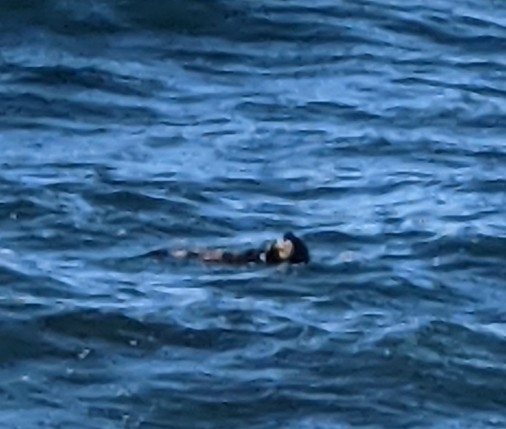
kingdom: Animalia
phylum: Chordata
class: Mammalia
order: Carnivora
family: Mustelidae
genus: Enhydra
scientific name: Enhydra lutris
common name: Sea otter
